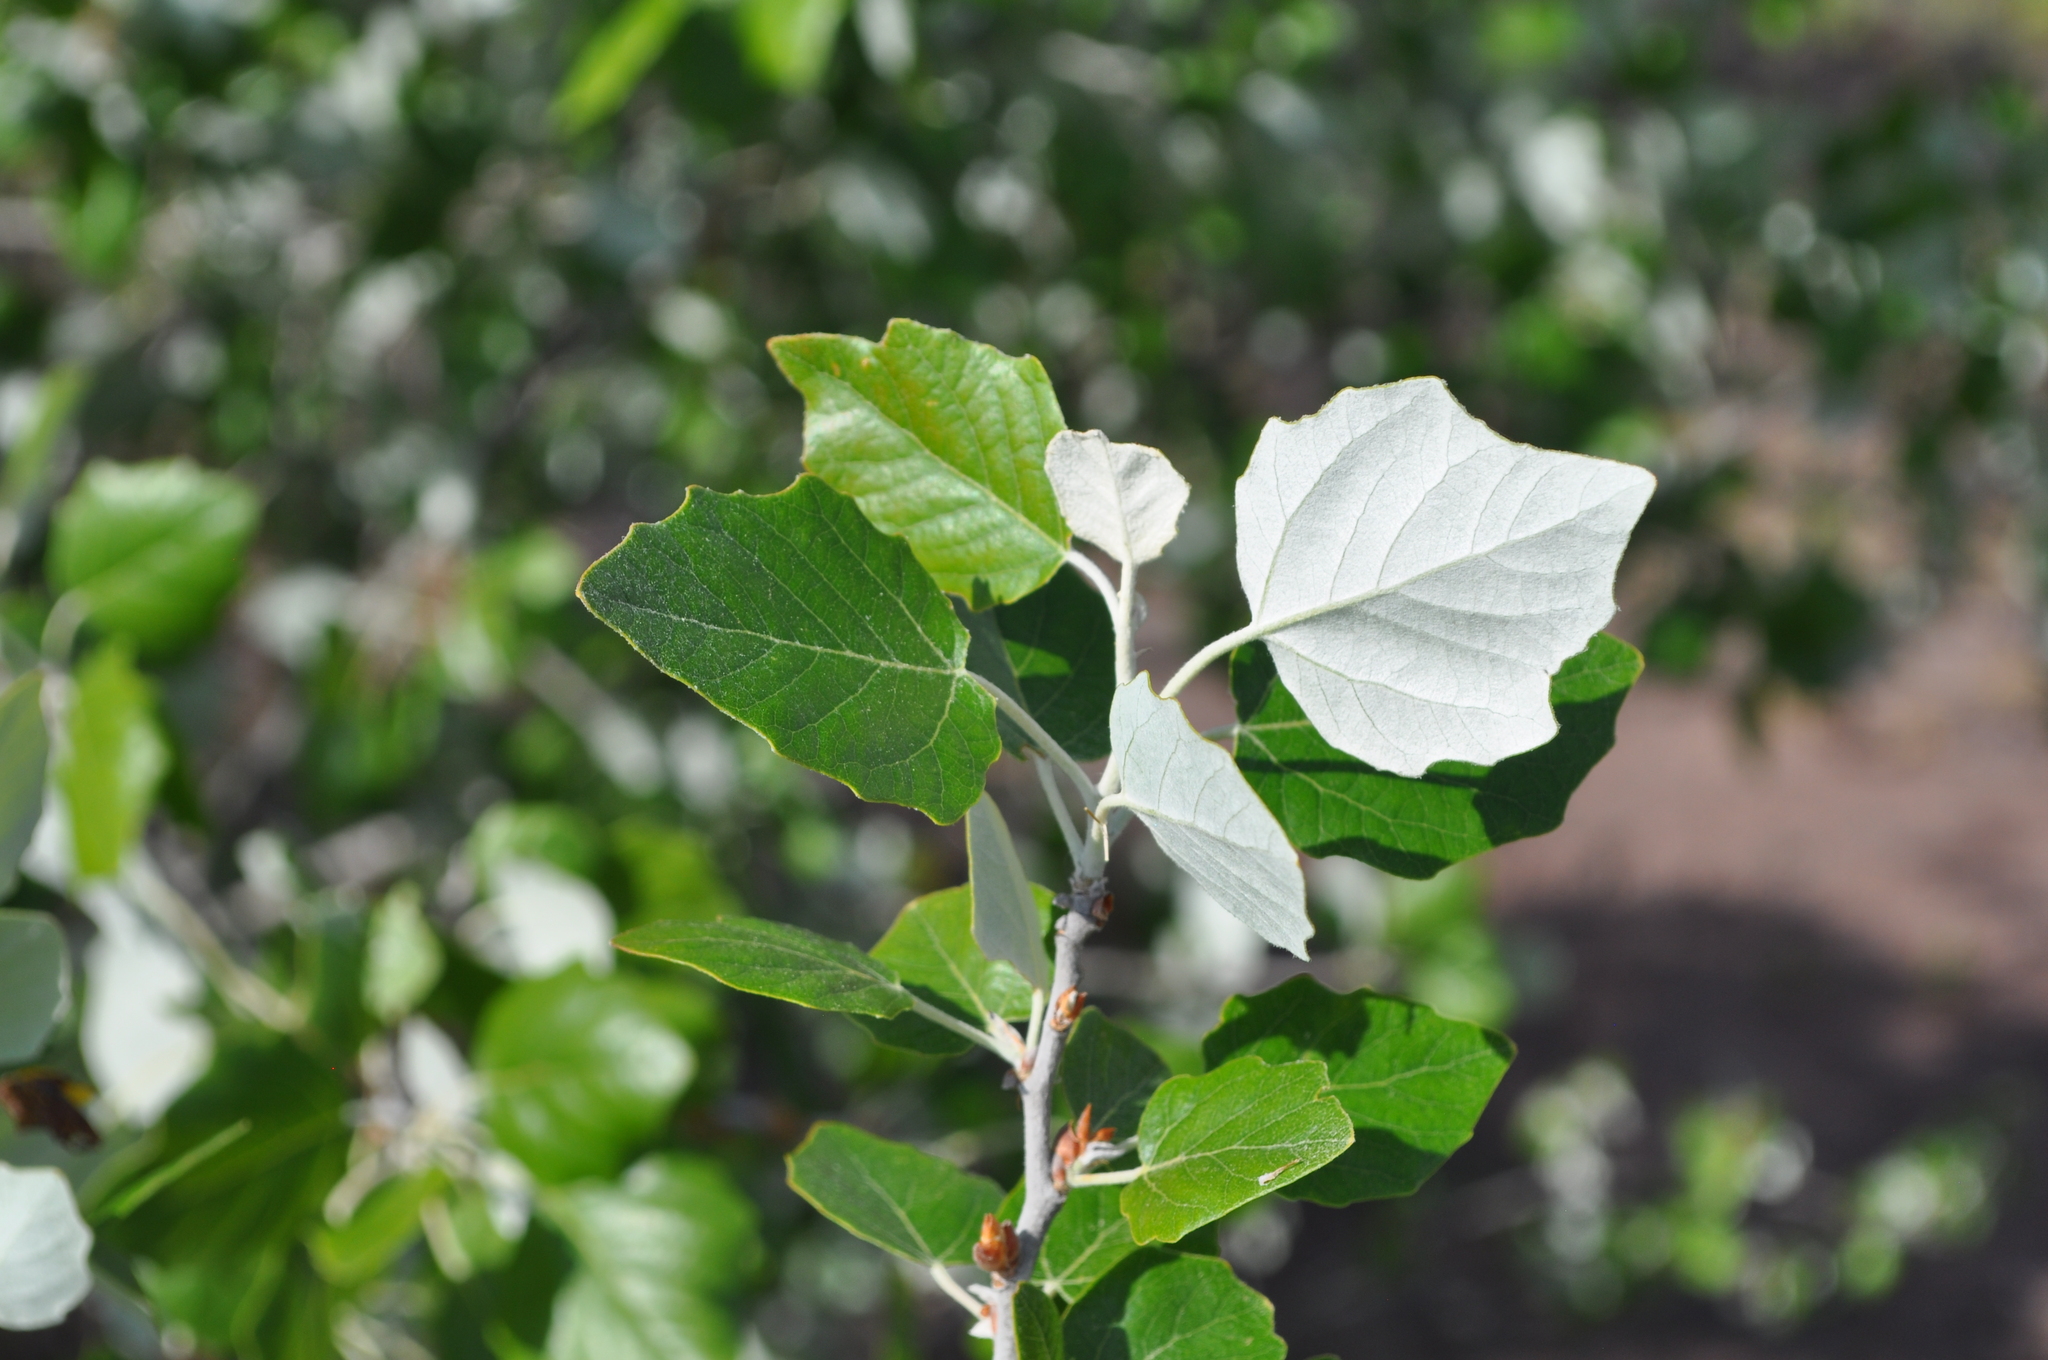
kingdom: Plantae
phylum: Tracheophyta
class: Magnoliopsida
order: Malpighiales
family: Salicaceae
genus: Populus
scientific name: Populus alba
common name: White poplar
